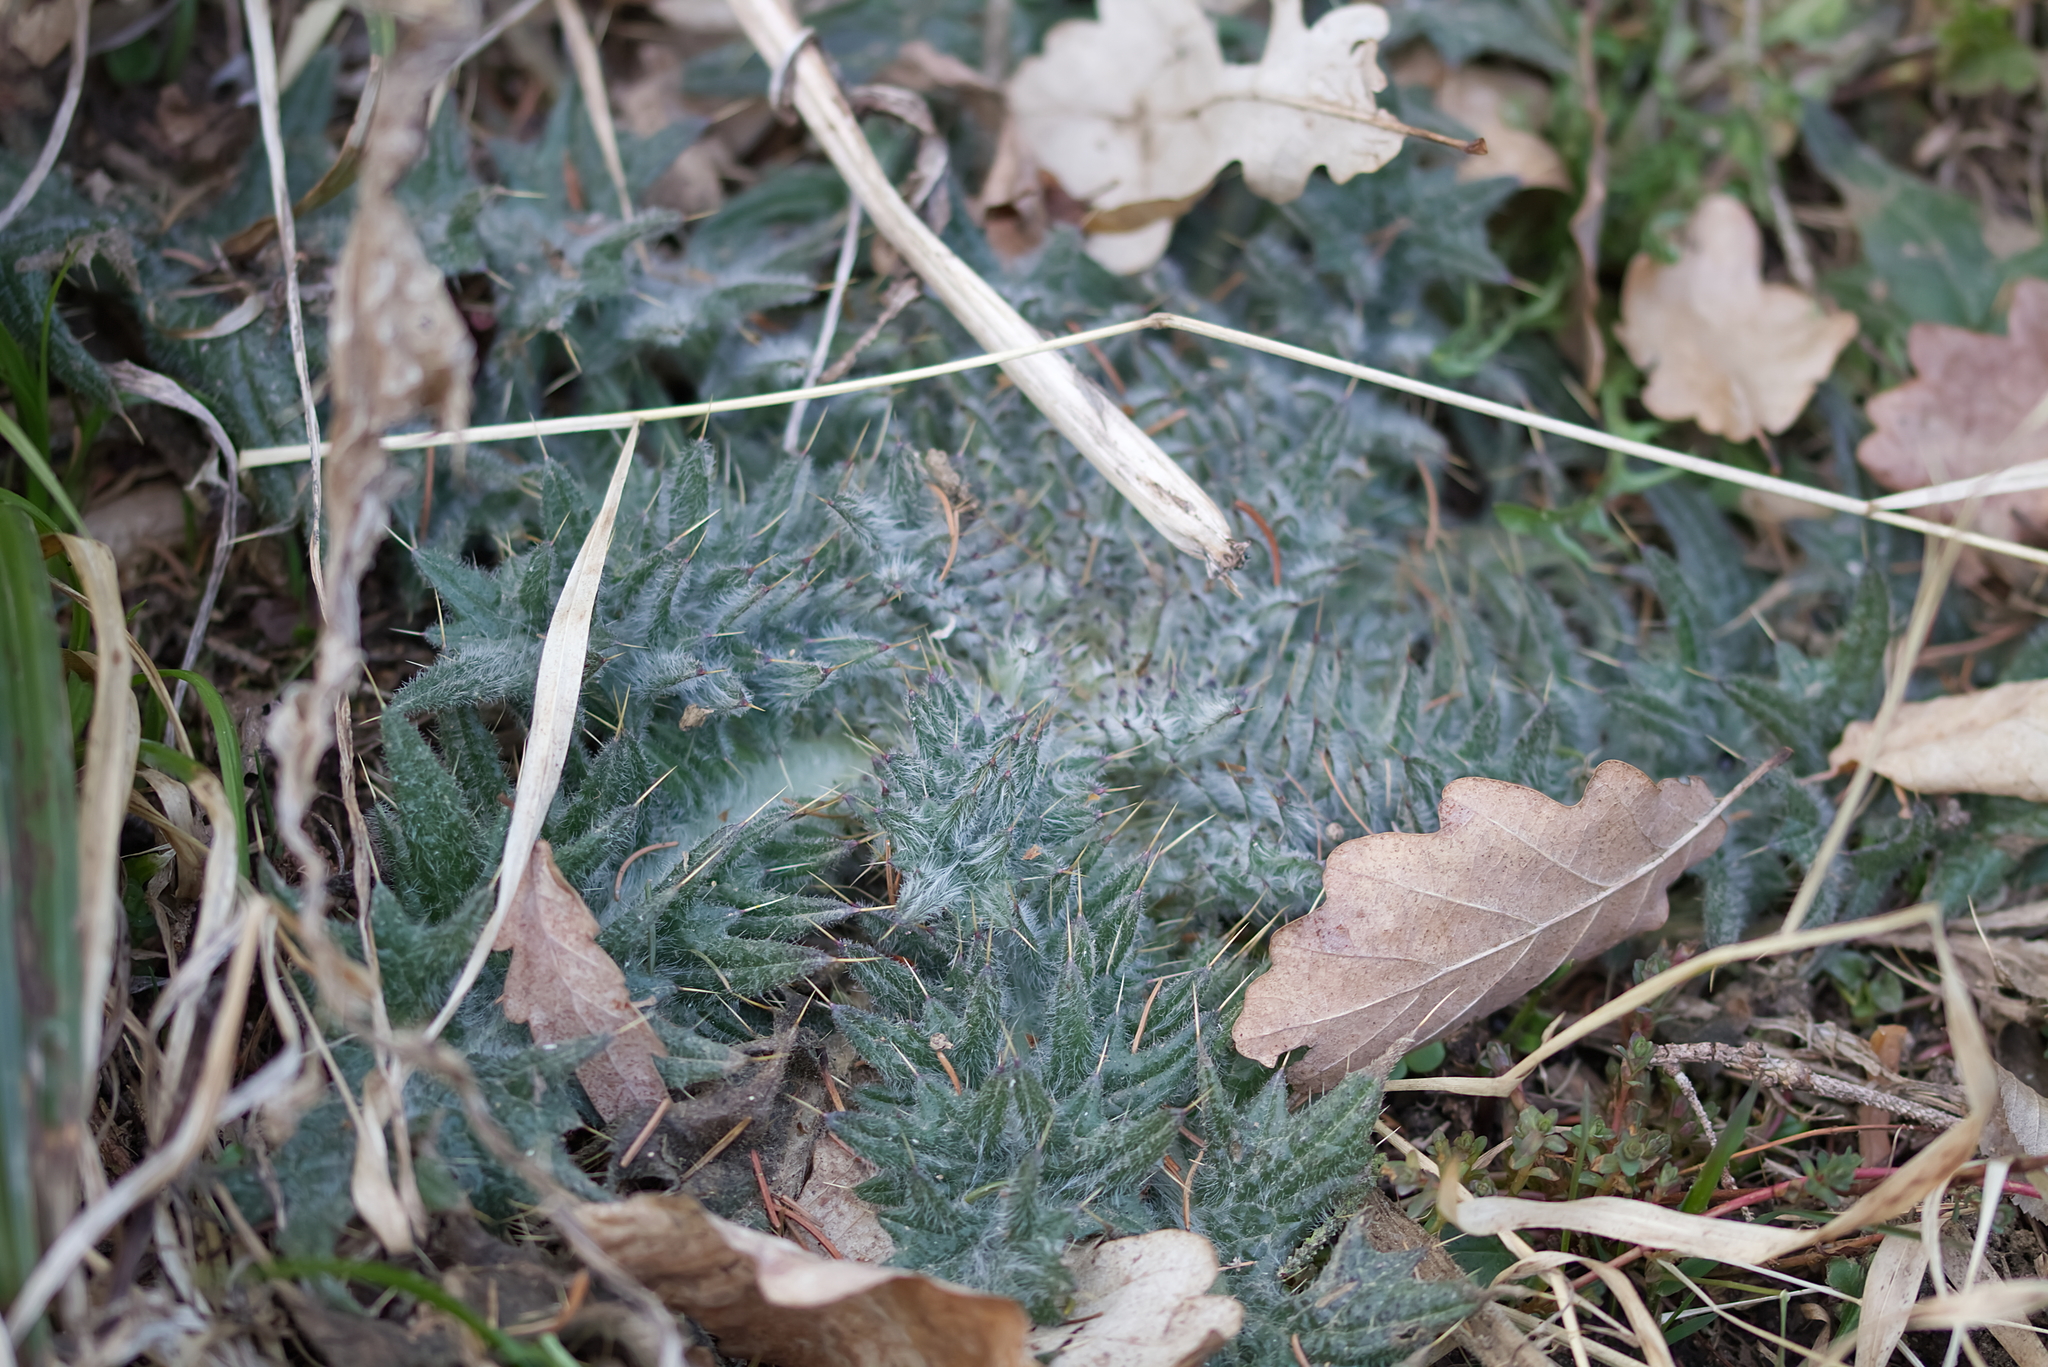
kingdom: Plantae
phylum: Tracheophyta
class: Magnoliopsida
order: Asterales
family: Asteraceae
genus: Cirsium
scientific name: Cirsium vulgare
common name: Bull thistle
